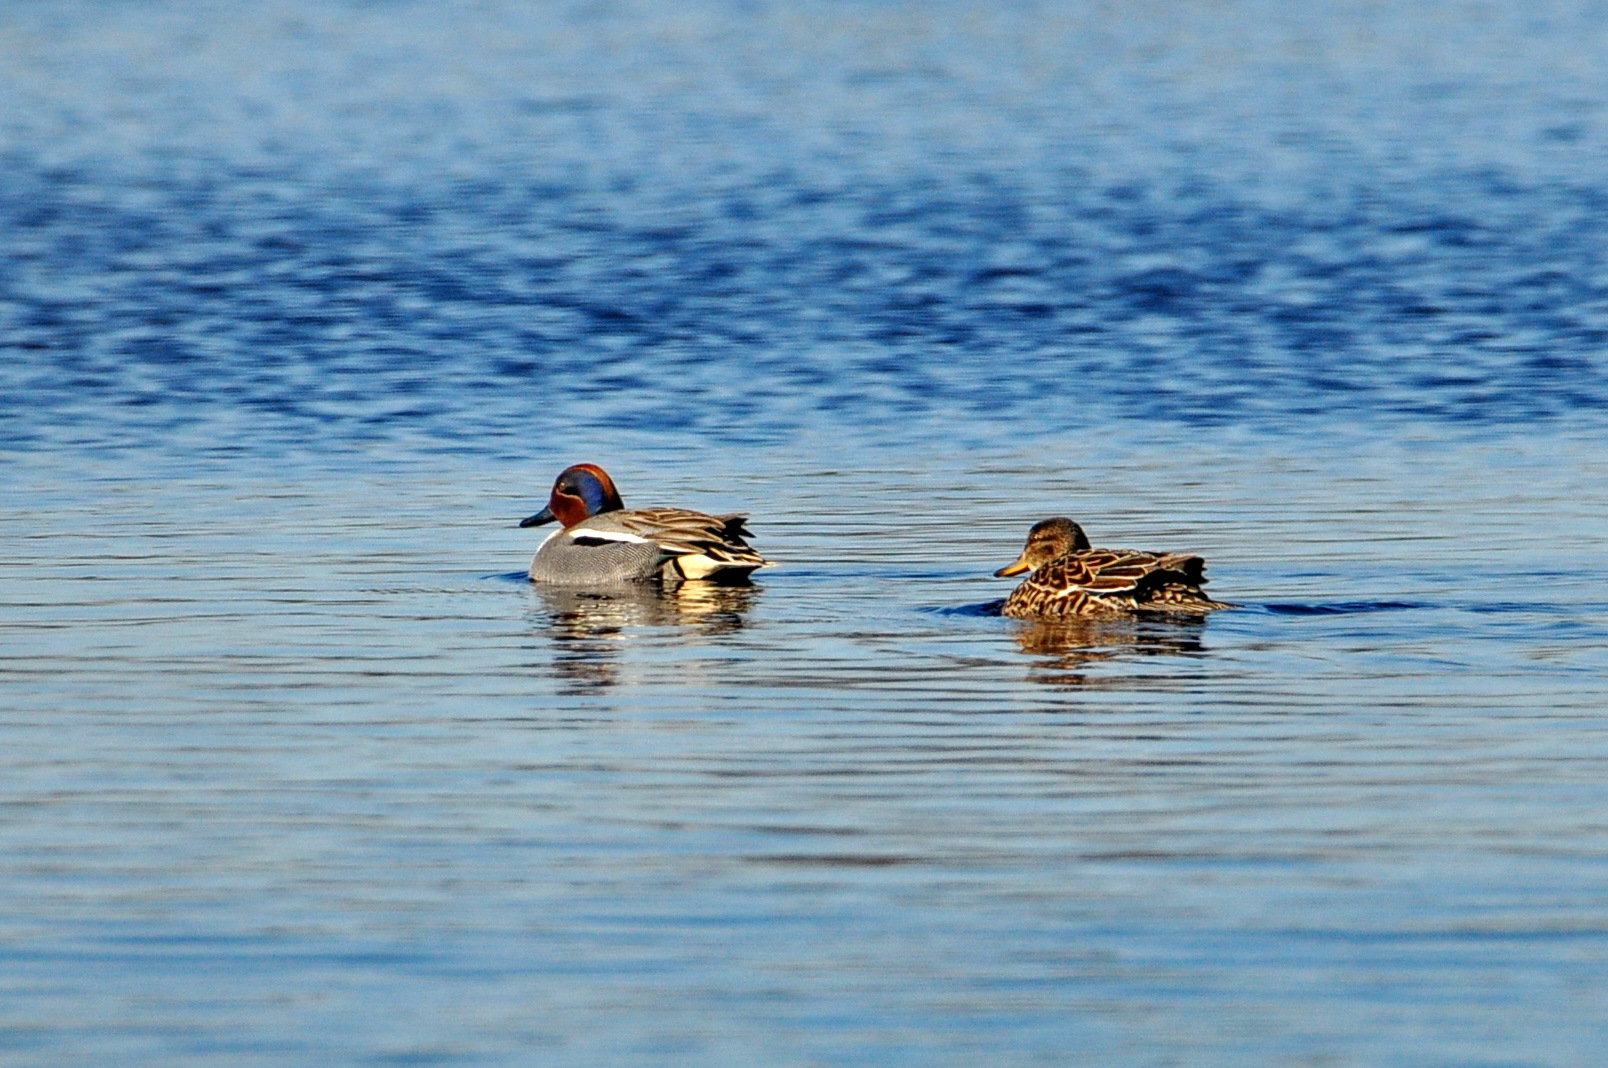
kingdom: Animalia
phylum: Chordata
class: Aves
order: Anseriformes
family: Anatidae
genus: Anas
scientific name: Anas crecca
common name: Eurasian teal
